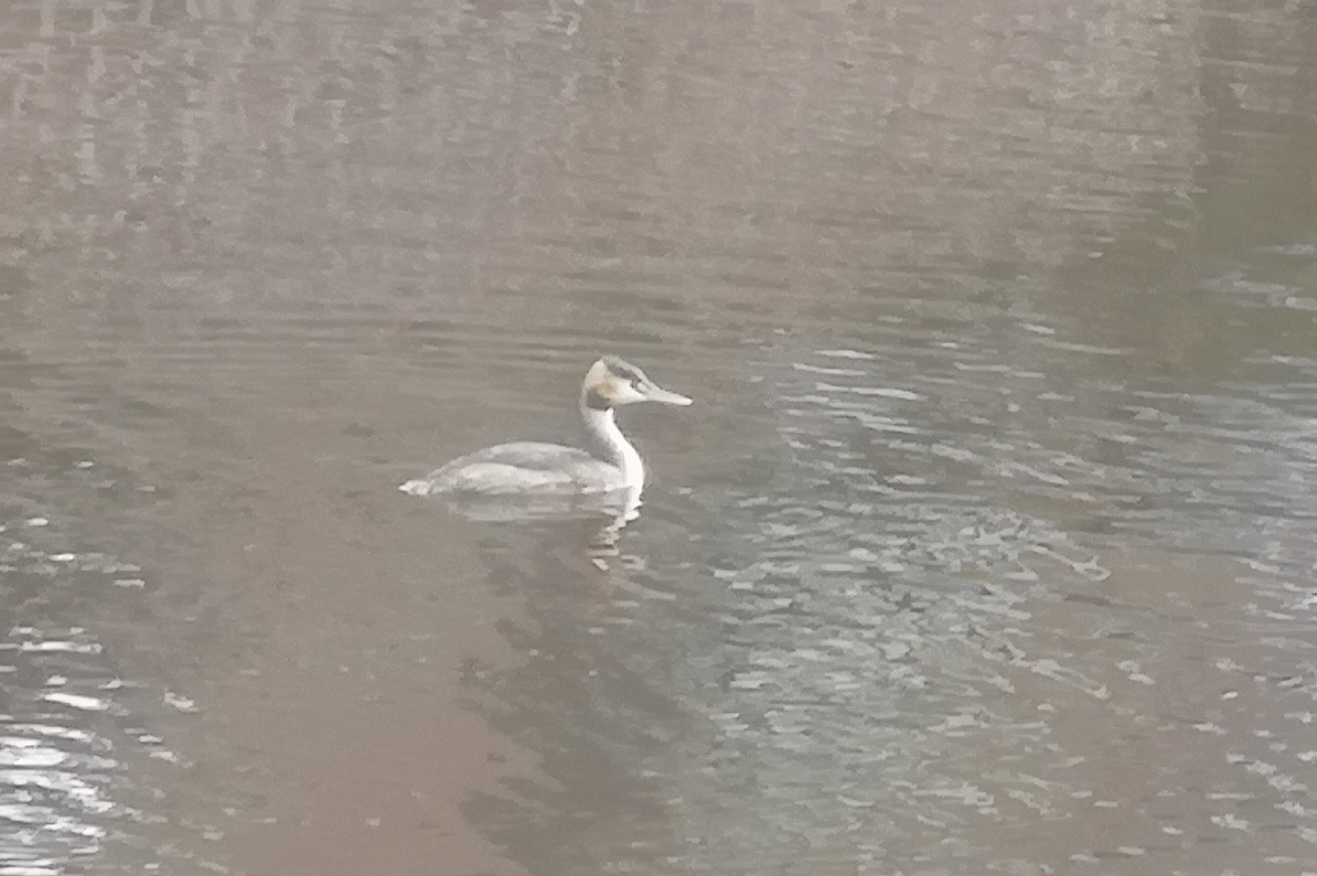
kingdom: Animalia
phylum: Chordata
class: Aves
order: Podicipediformes
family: Podicipedidae
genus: Podiceps
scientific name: Podiceps cristatus
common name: Great crested grebe
